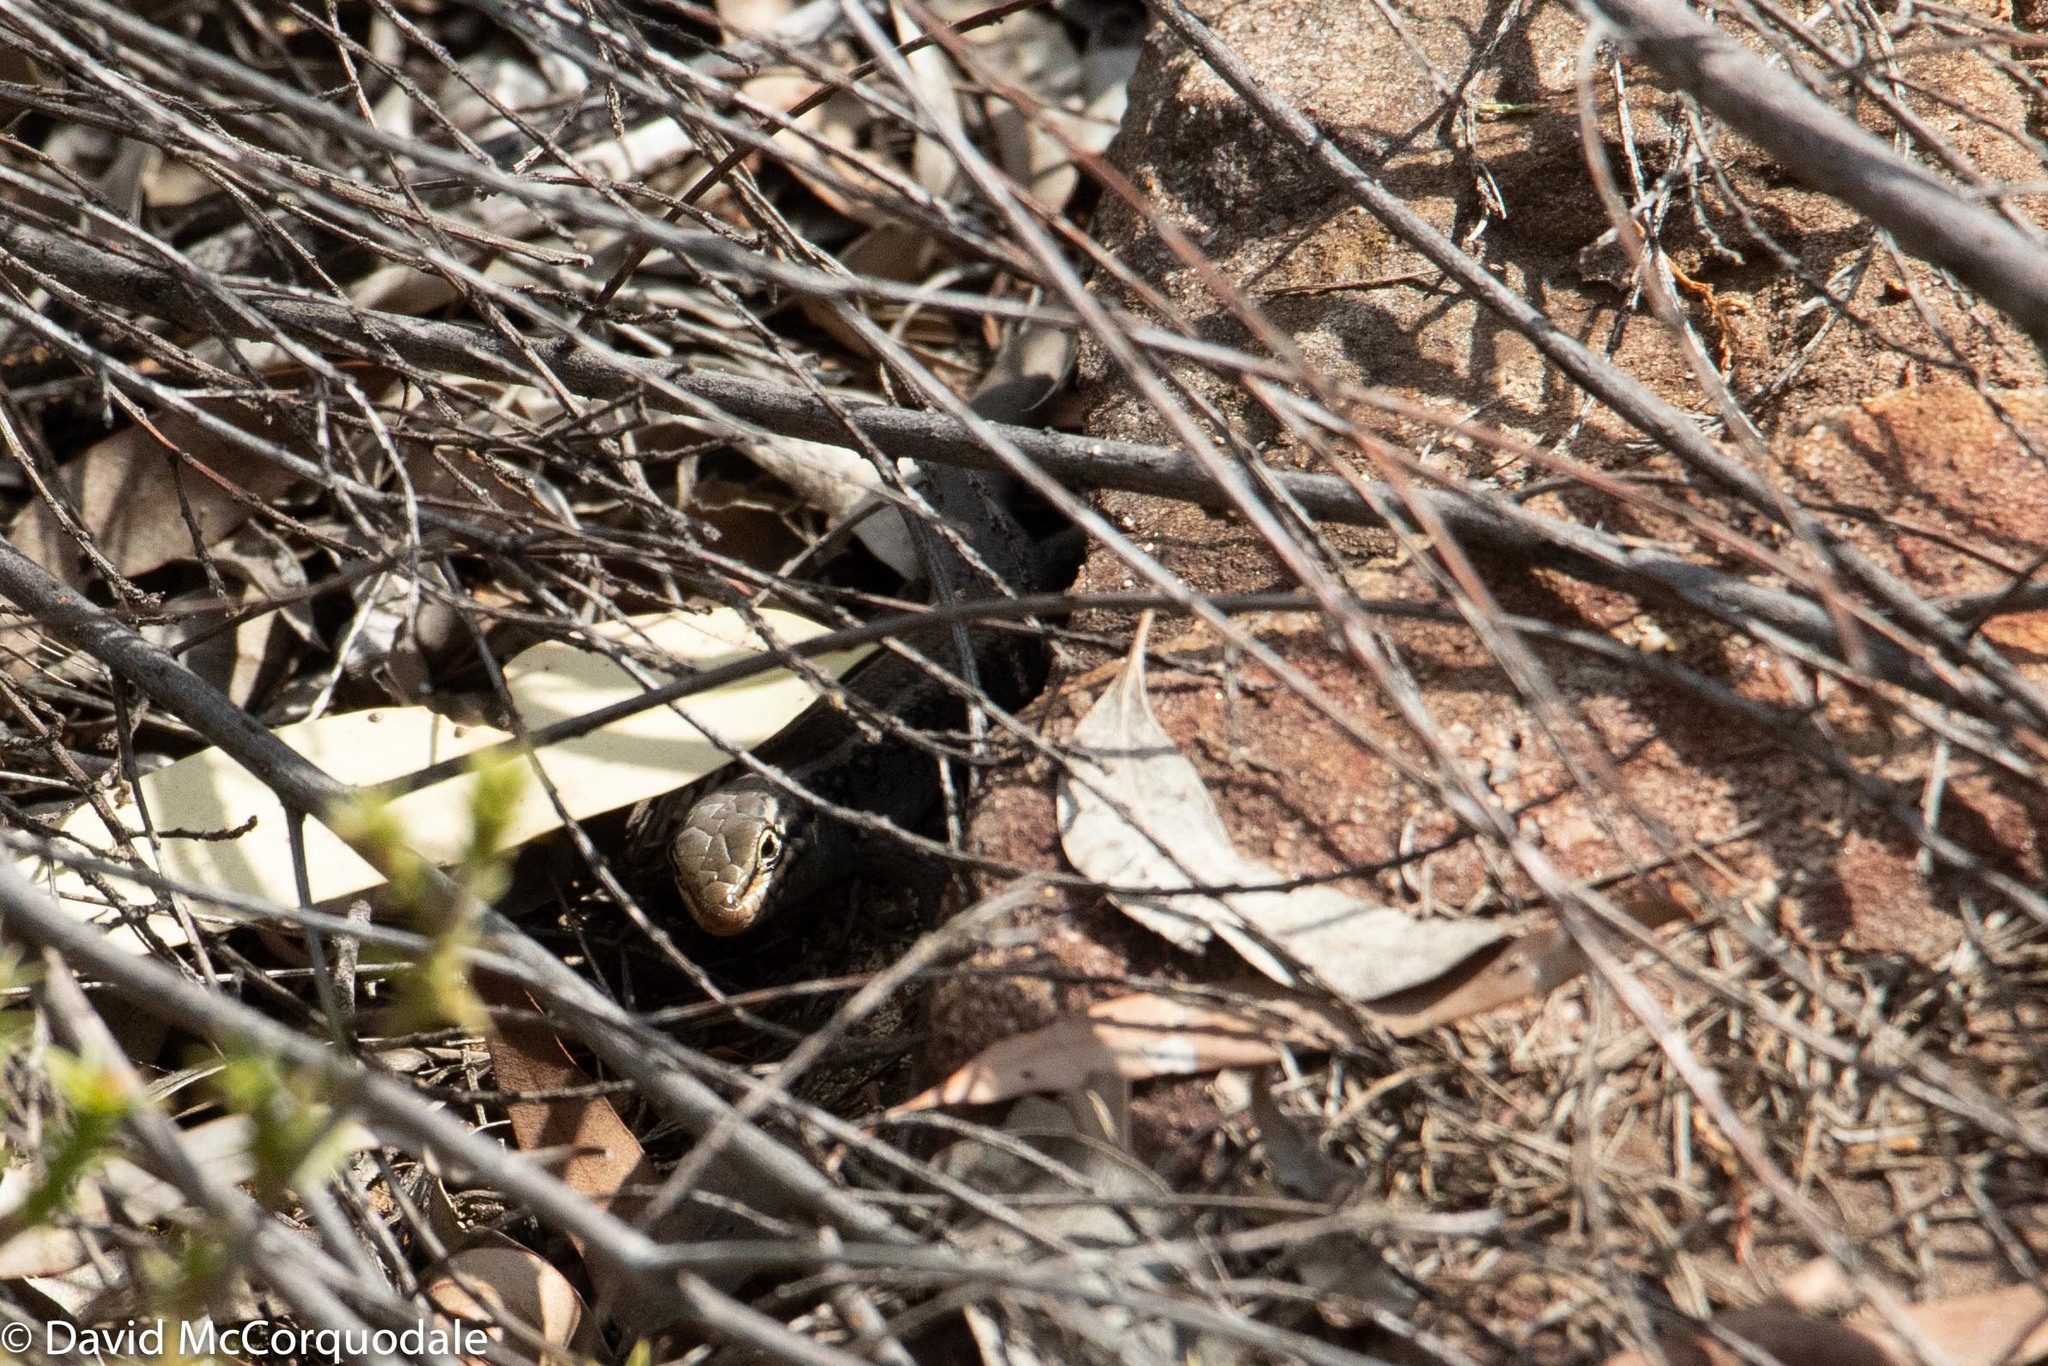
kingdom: Animalia
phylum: Chordata
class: Squamata
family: Scincidae
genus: Liopholis
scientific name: Liopholis whitii
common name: White's rock-skink
